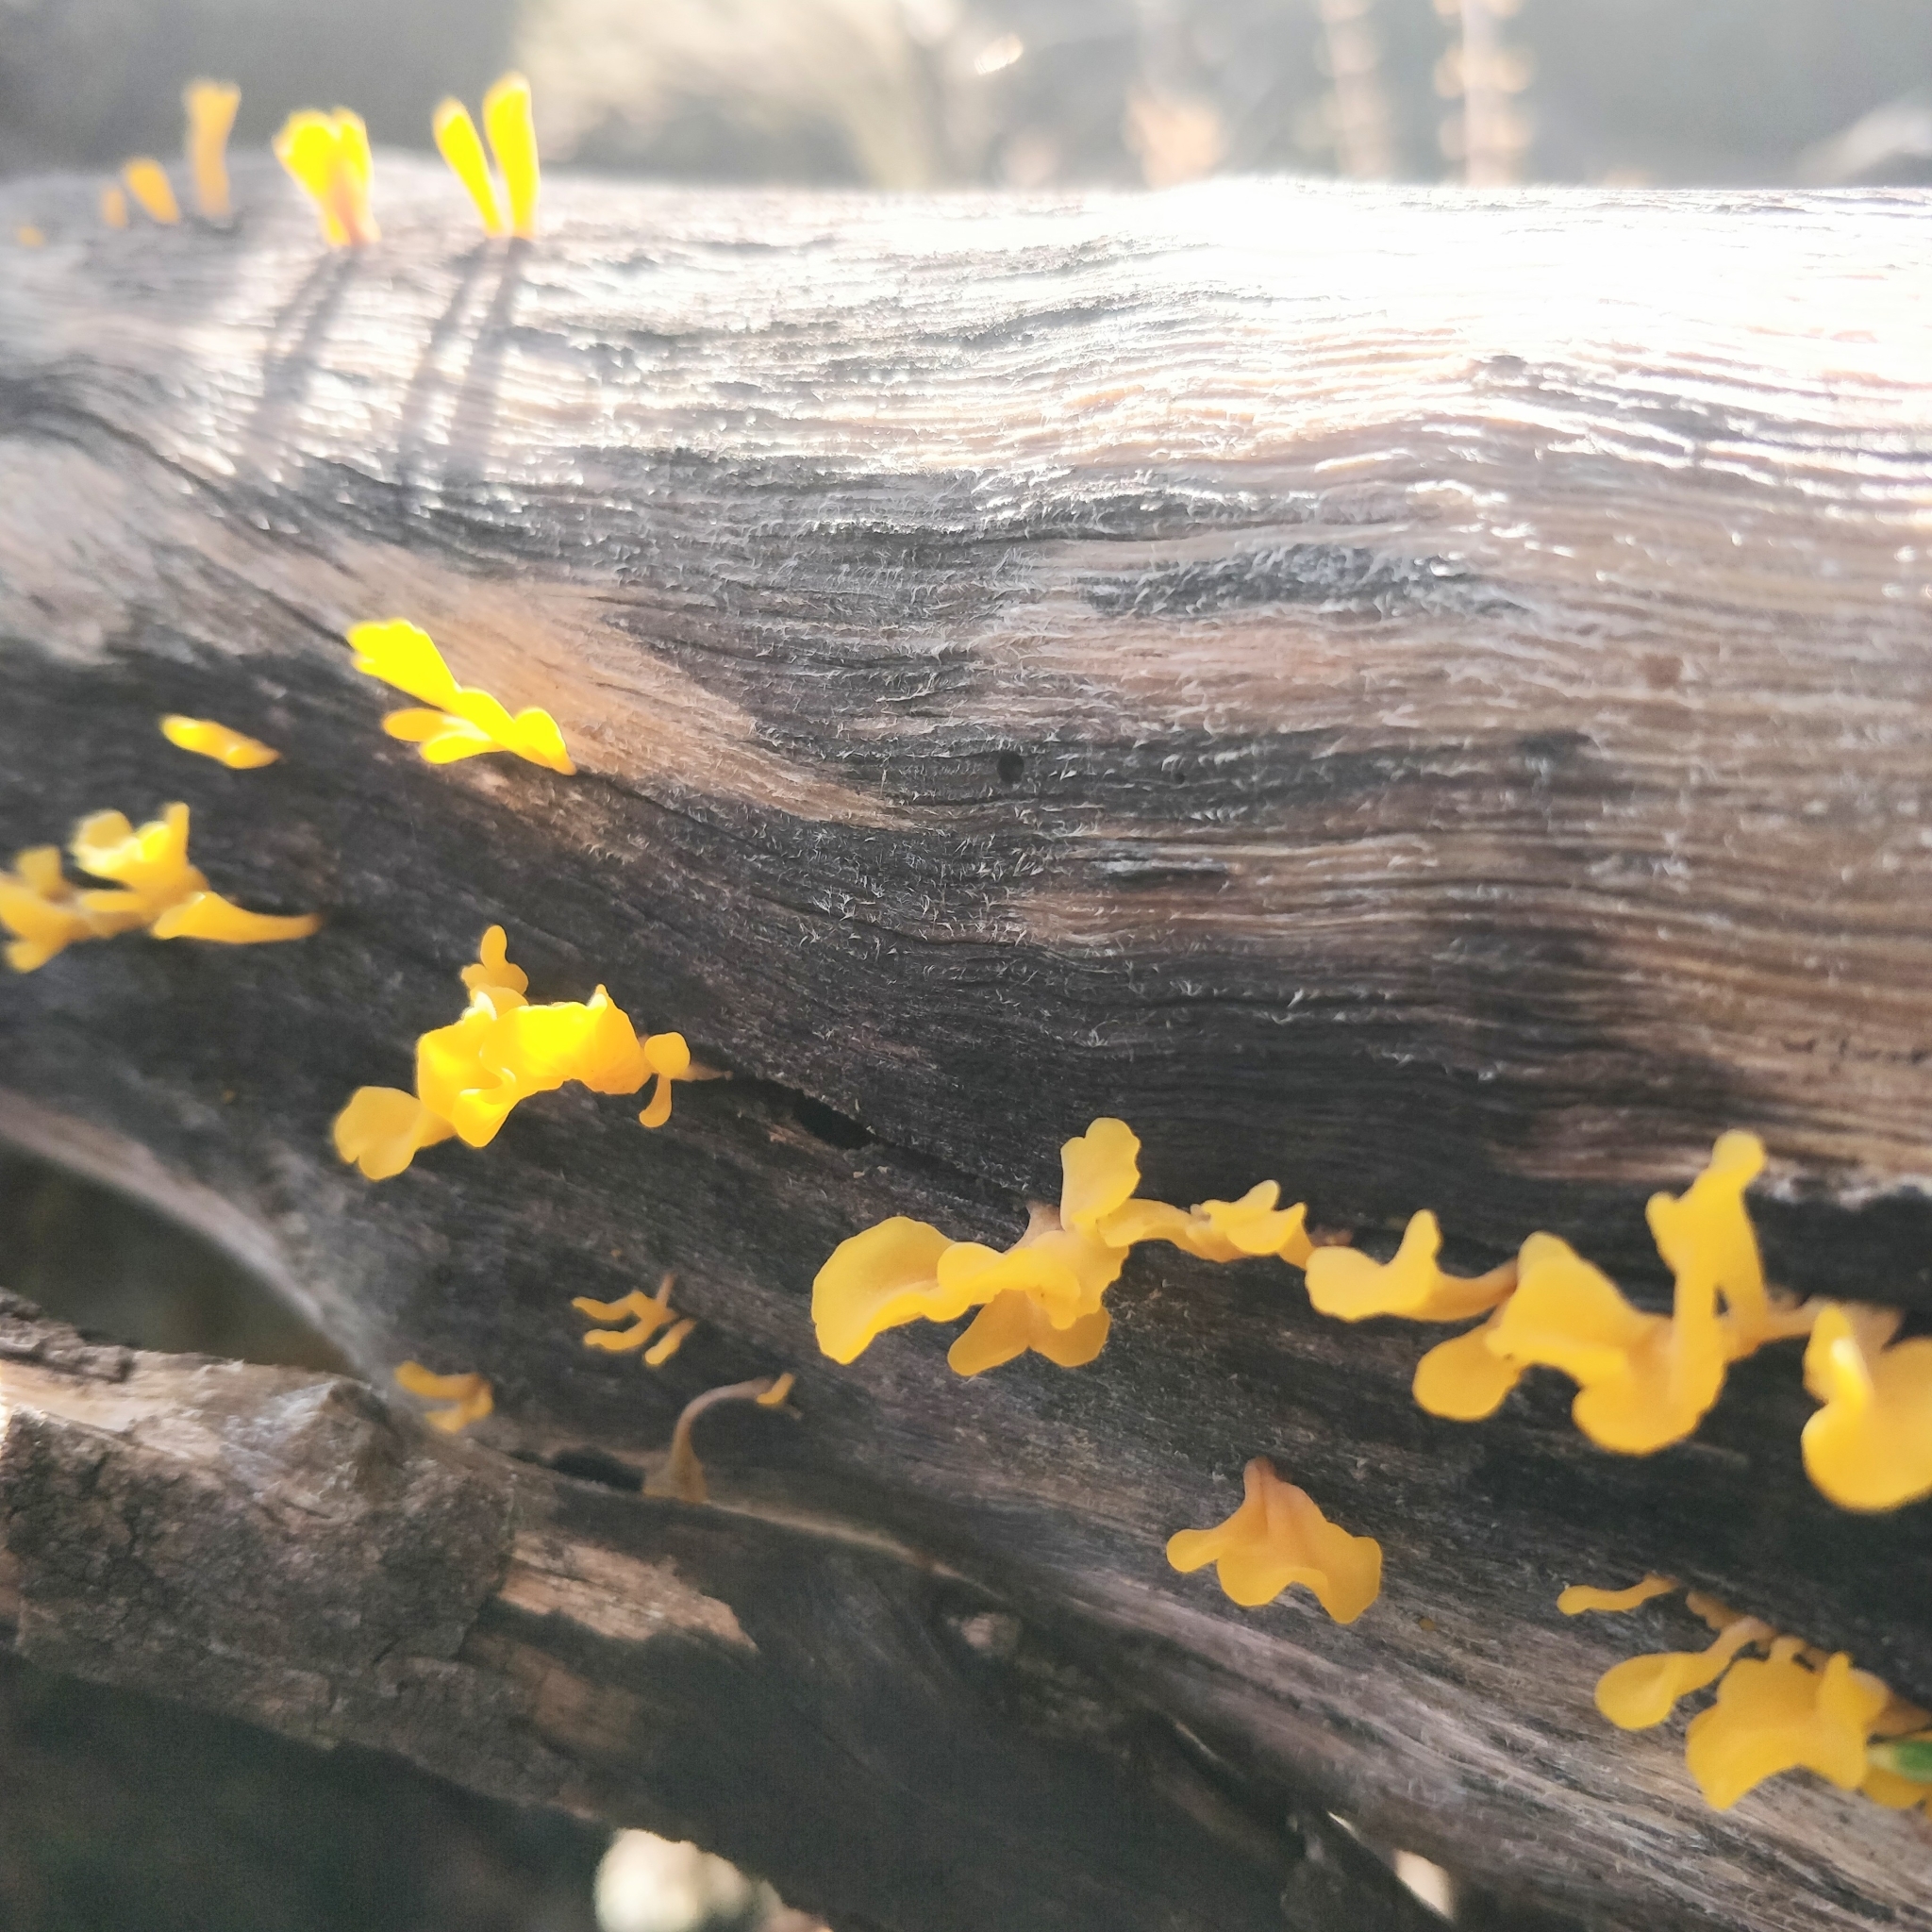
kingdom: Fungi
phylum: Basidiomycota
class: Dacrymycetes
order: Dacrymycetales
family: Dacrymycetaceae
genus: Dacrymyces
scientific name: Dacrymyces spathularius
